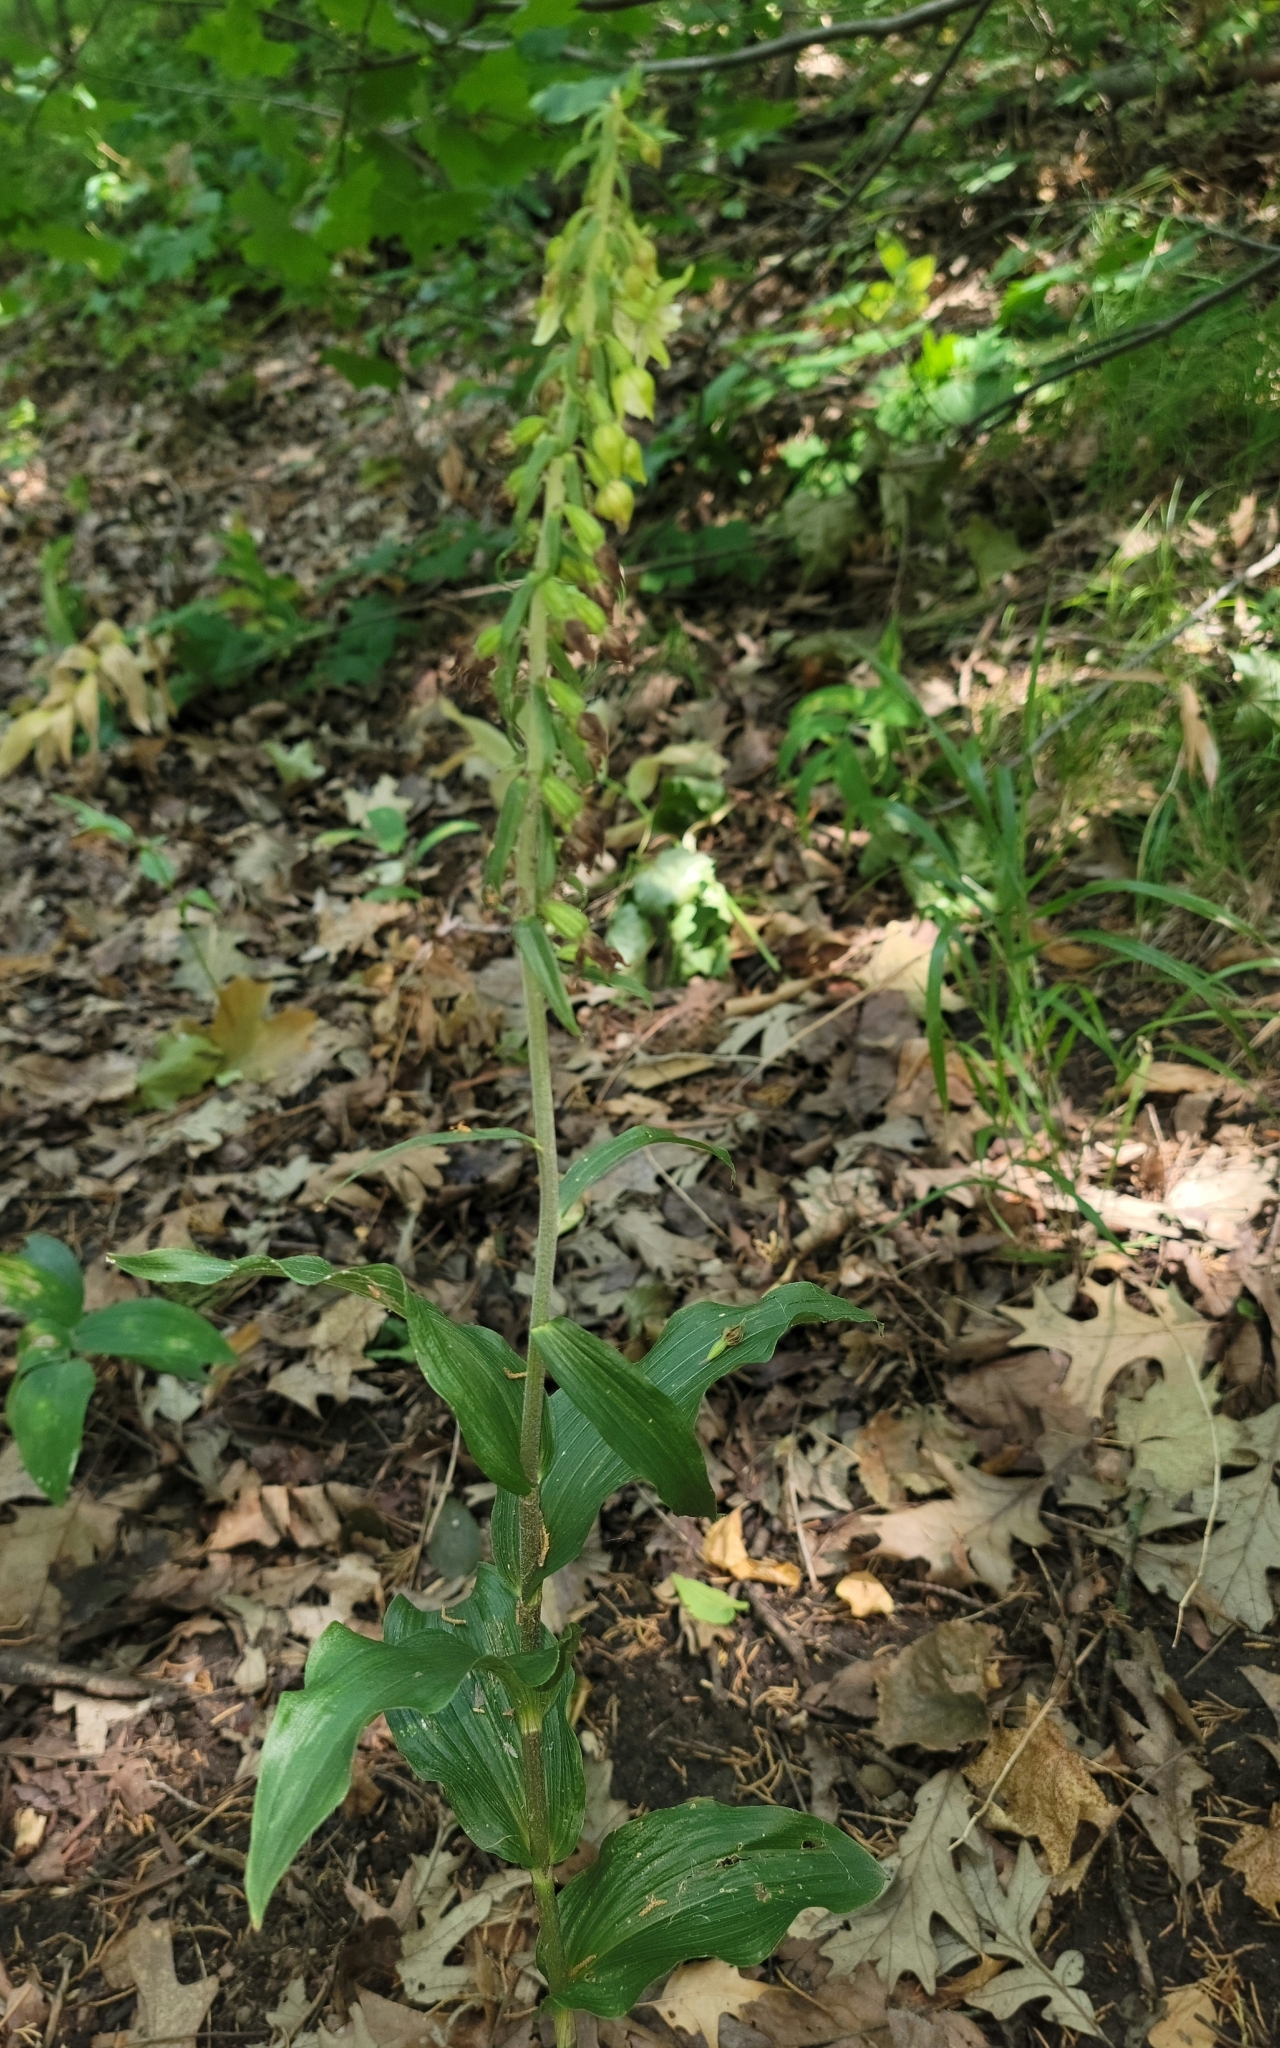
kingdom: Plantae
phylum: Tracheophyta
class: Liliopsida
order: Asparagales
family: Orchidaceae
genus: Epipactis
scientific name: Epipactis helleborine
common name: Broad-leaved helleborine
